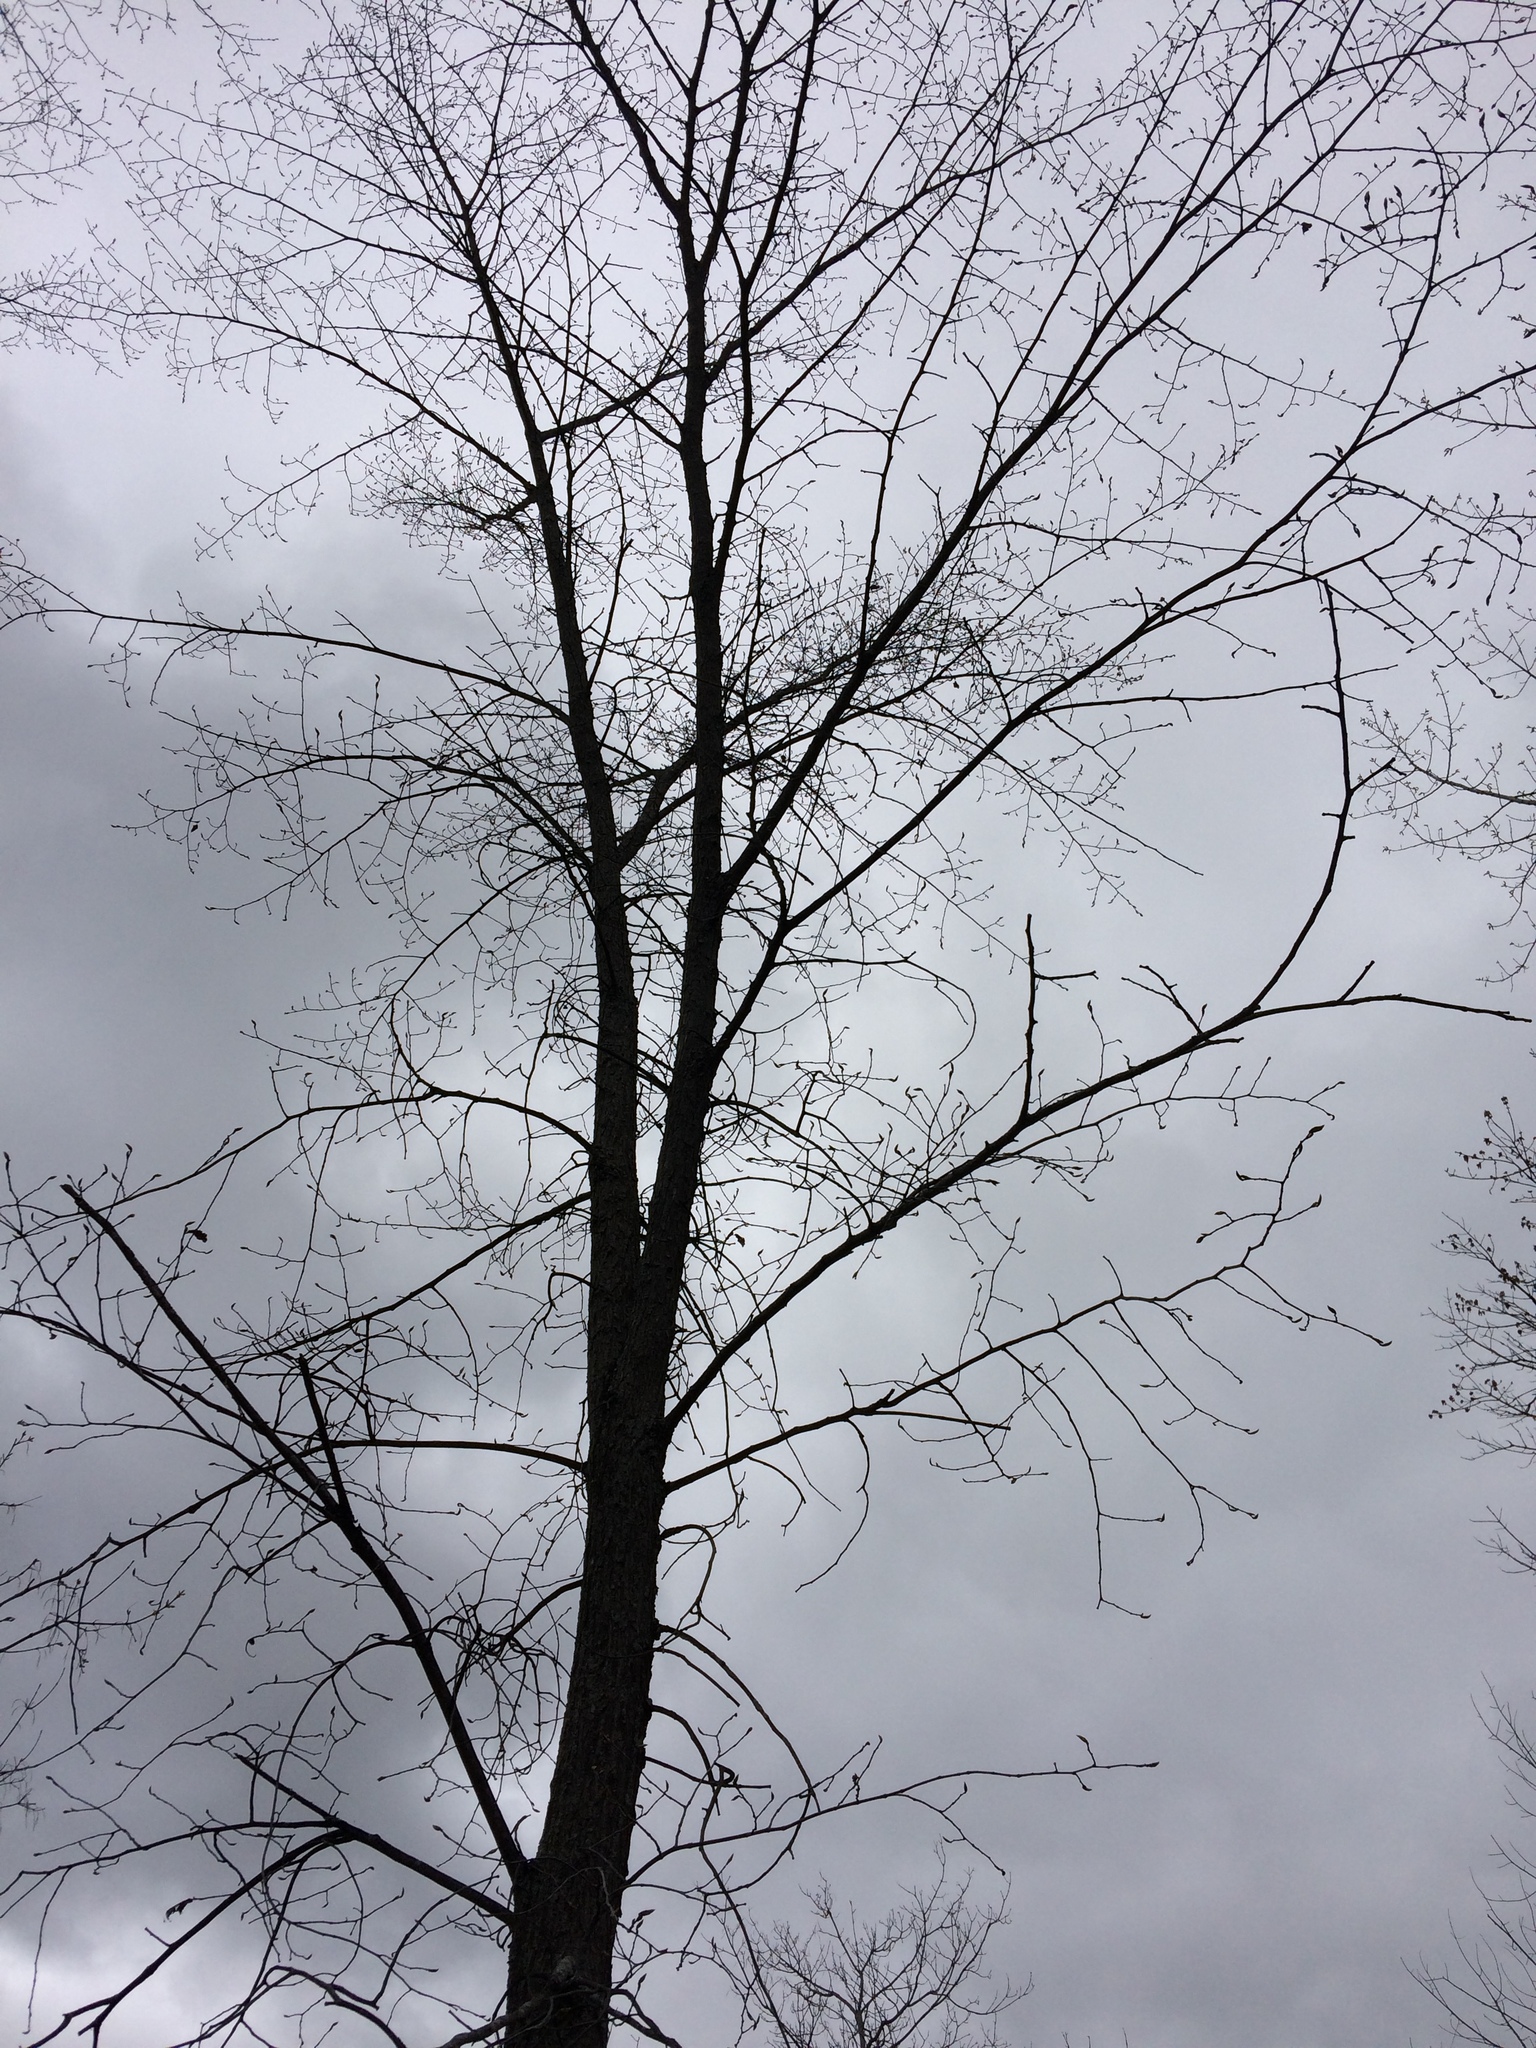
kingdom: Plantae
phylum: Tracheophyta
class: Magnoliopsida
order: Rosales
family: Ulmaceae
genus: Ulmus
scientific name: Ulmus americana
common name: American elm
